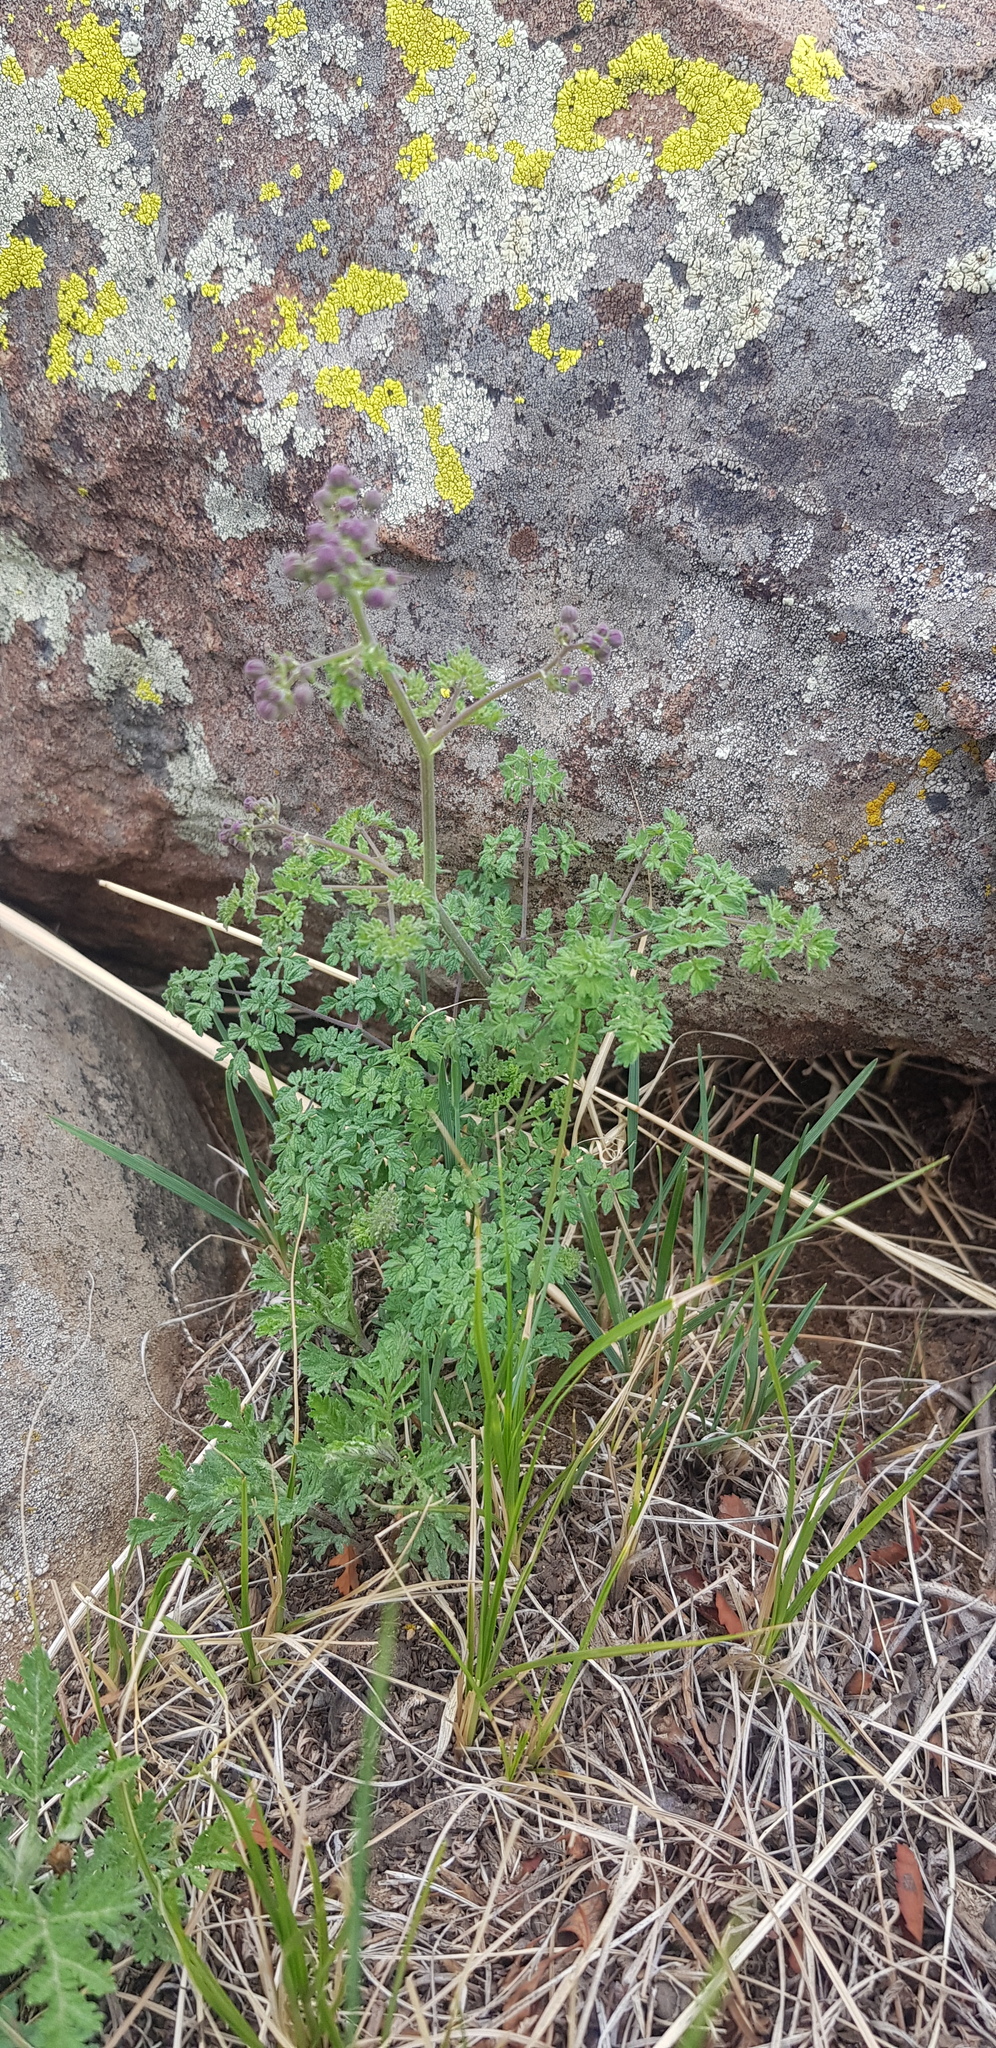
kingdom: Plantae
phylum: Tracheophyta
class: Magnoliopsida
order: Ranunculales
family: Ranunculaceae
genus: Thalictrum
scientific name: Thalictrum foetidum
